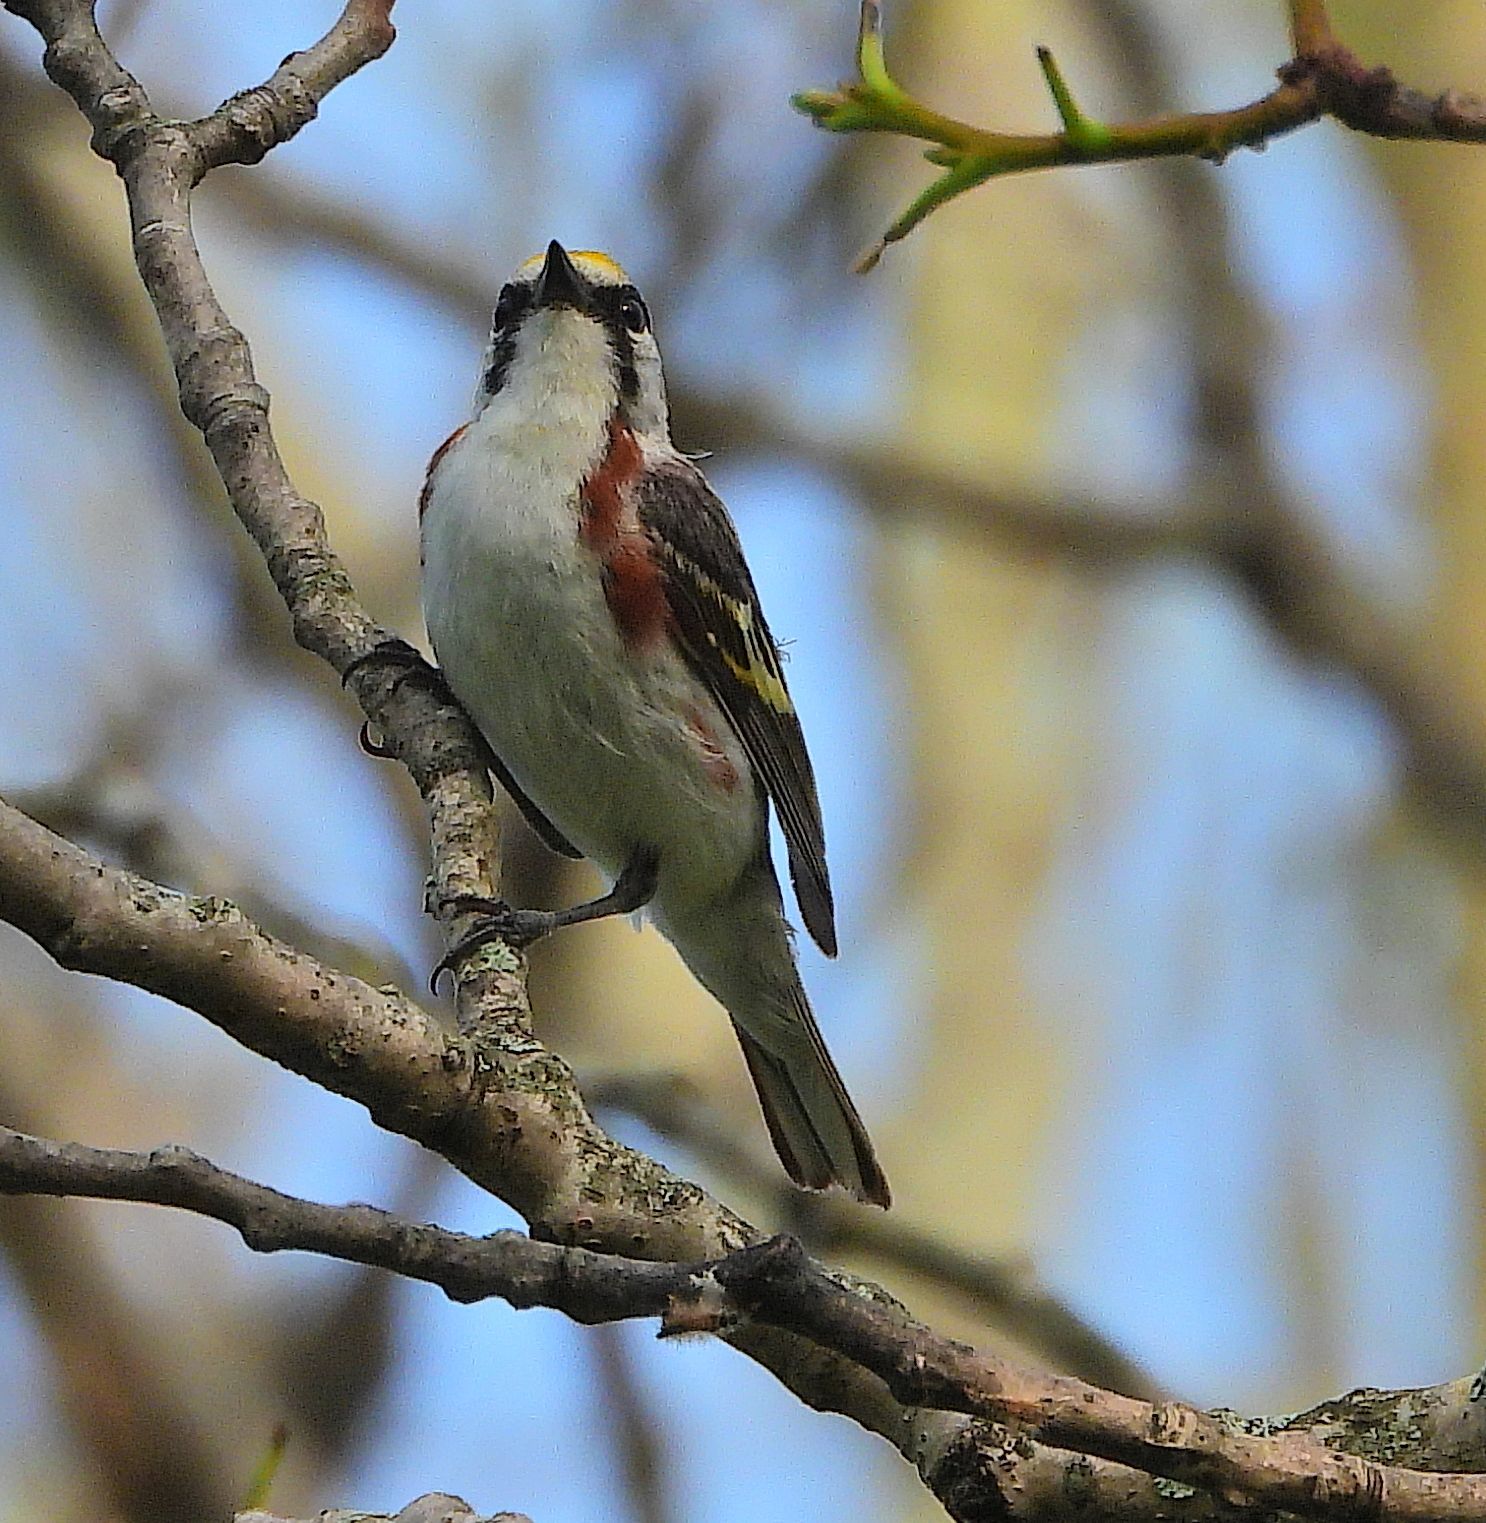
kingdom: Animalia
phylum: Chordata
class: Aves
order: Passeriformes
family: Parulidae
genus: Setophaga
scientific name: Setophaga pensylvanica
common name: Chestnut-sided warbler
